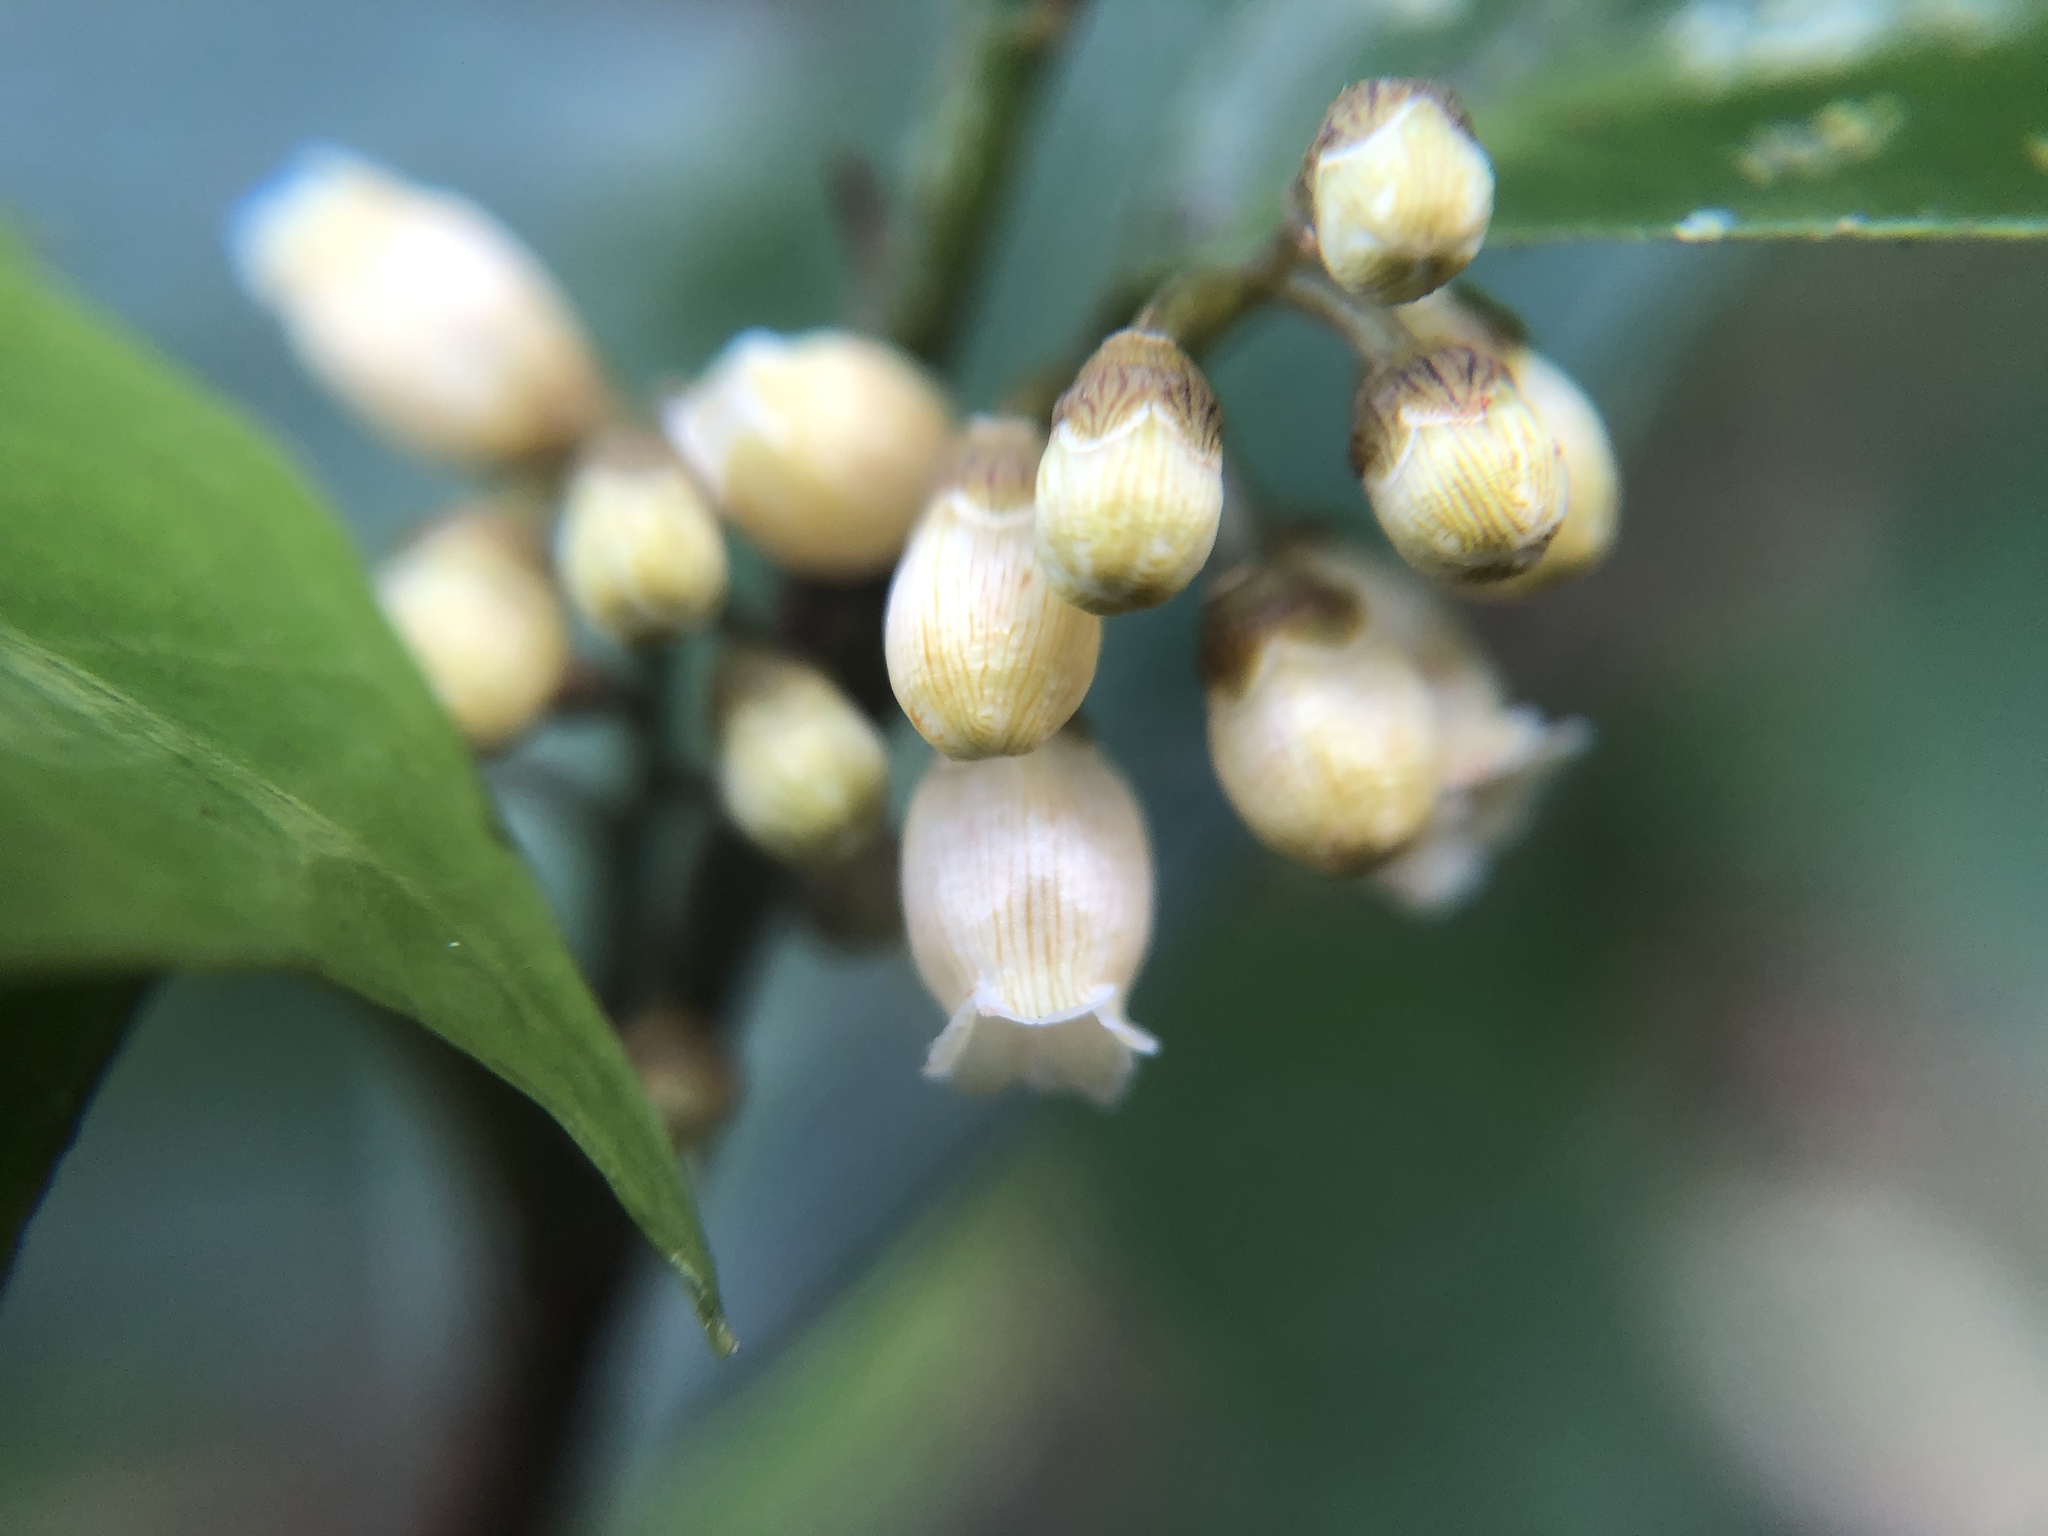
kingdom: Plantae
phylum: Tracheophyta
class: Magnoliopsida
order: Ericales
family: Primulaceae
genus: Maesa
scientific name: Maesa japonica
